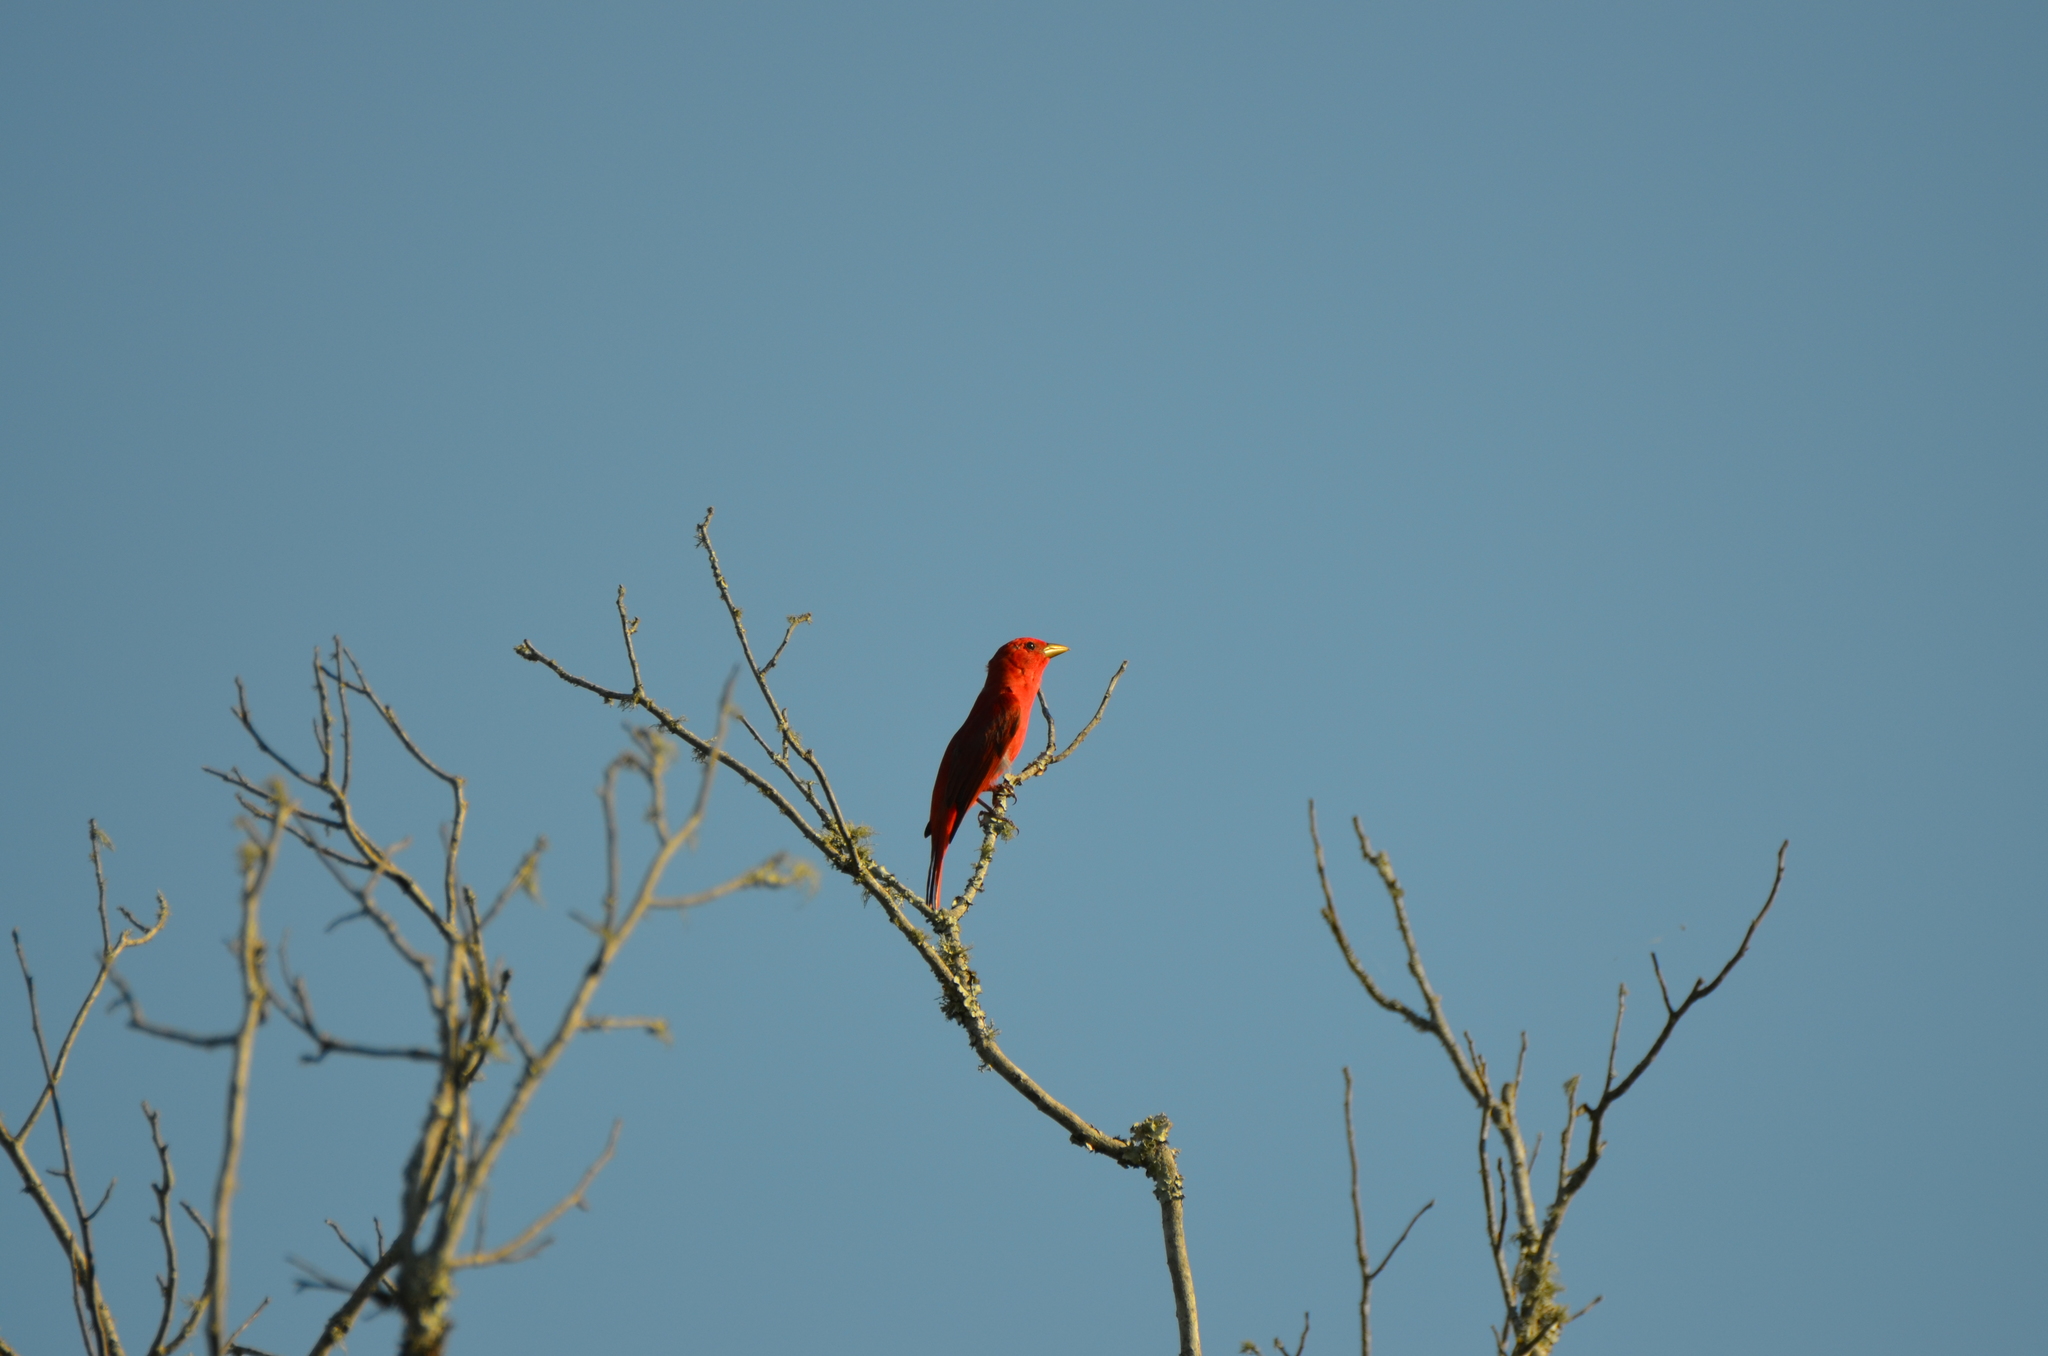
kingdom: Animalia
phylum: Chordata
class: Aves
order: Passeriformes
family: Cardinalidae
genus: Piranga
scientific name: Piranga rubra
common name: Summer tanager
